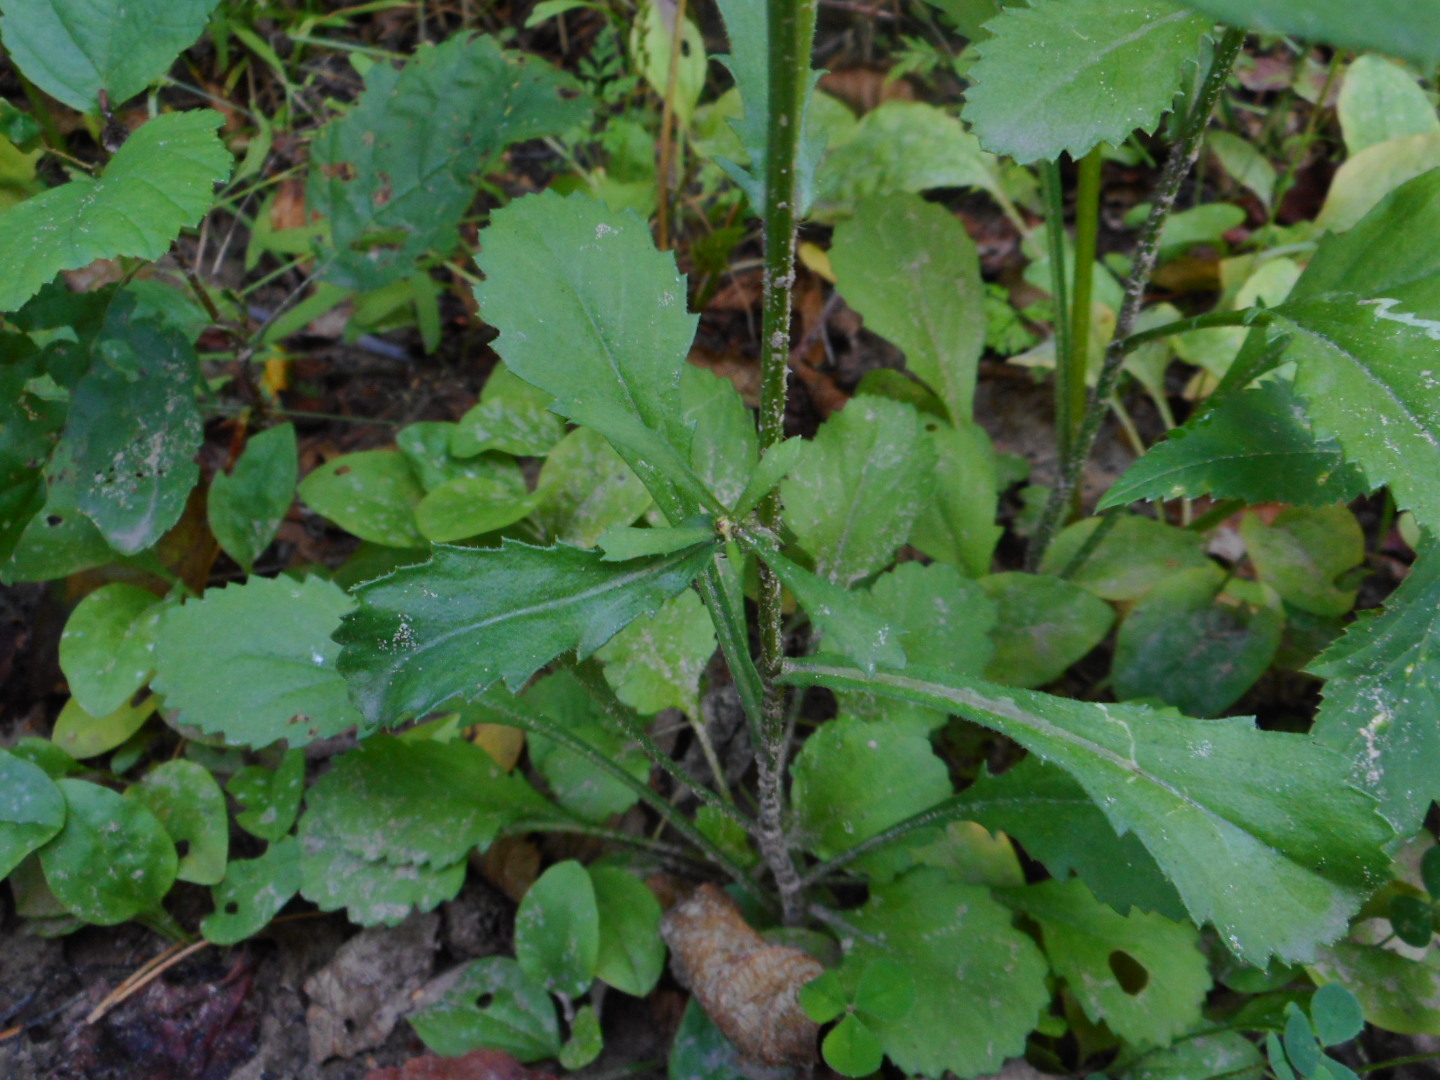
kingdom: Plantae
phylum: Tracheophyta
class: Magnoliopsida
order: Asterales
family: Asteraceae
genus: Leucanthemum
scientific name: Leucanthemum vulgare
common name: Oxeye daisy
